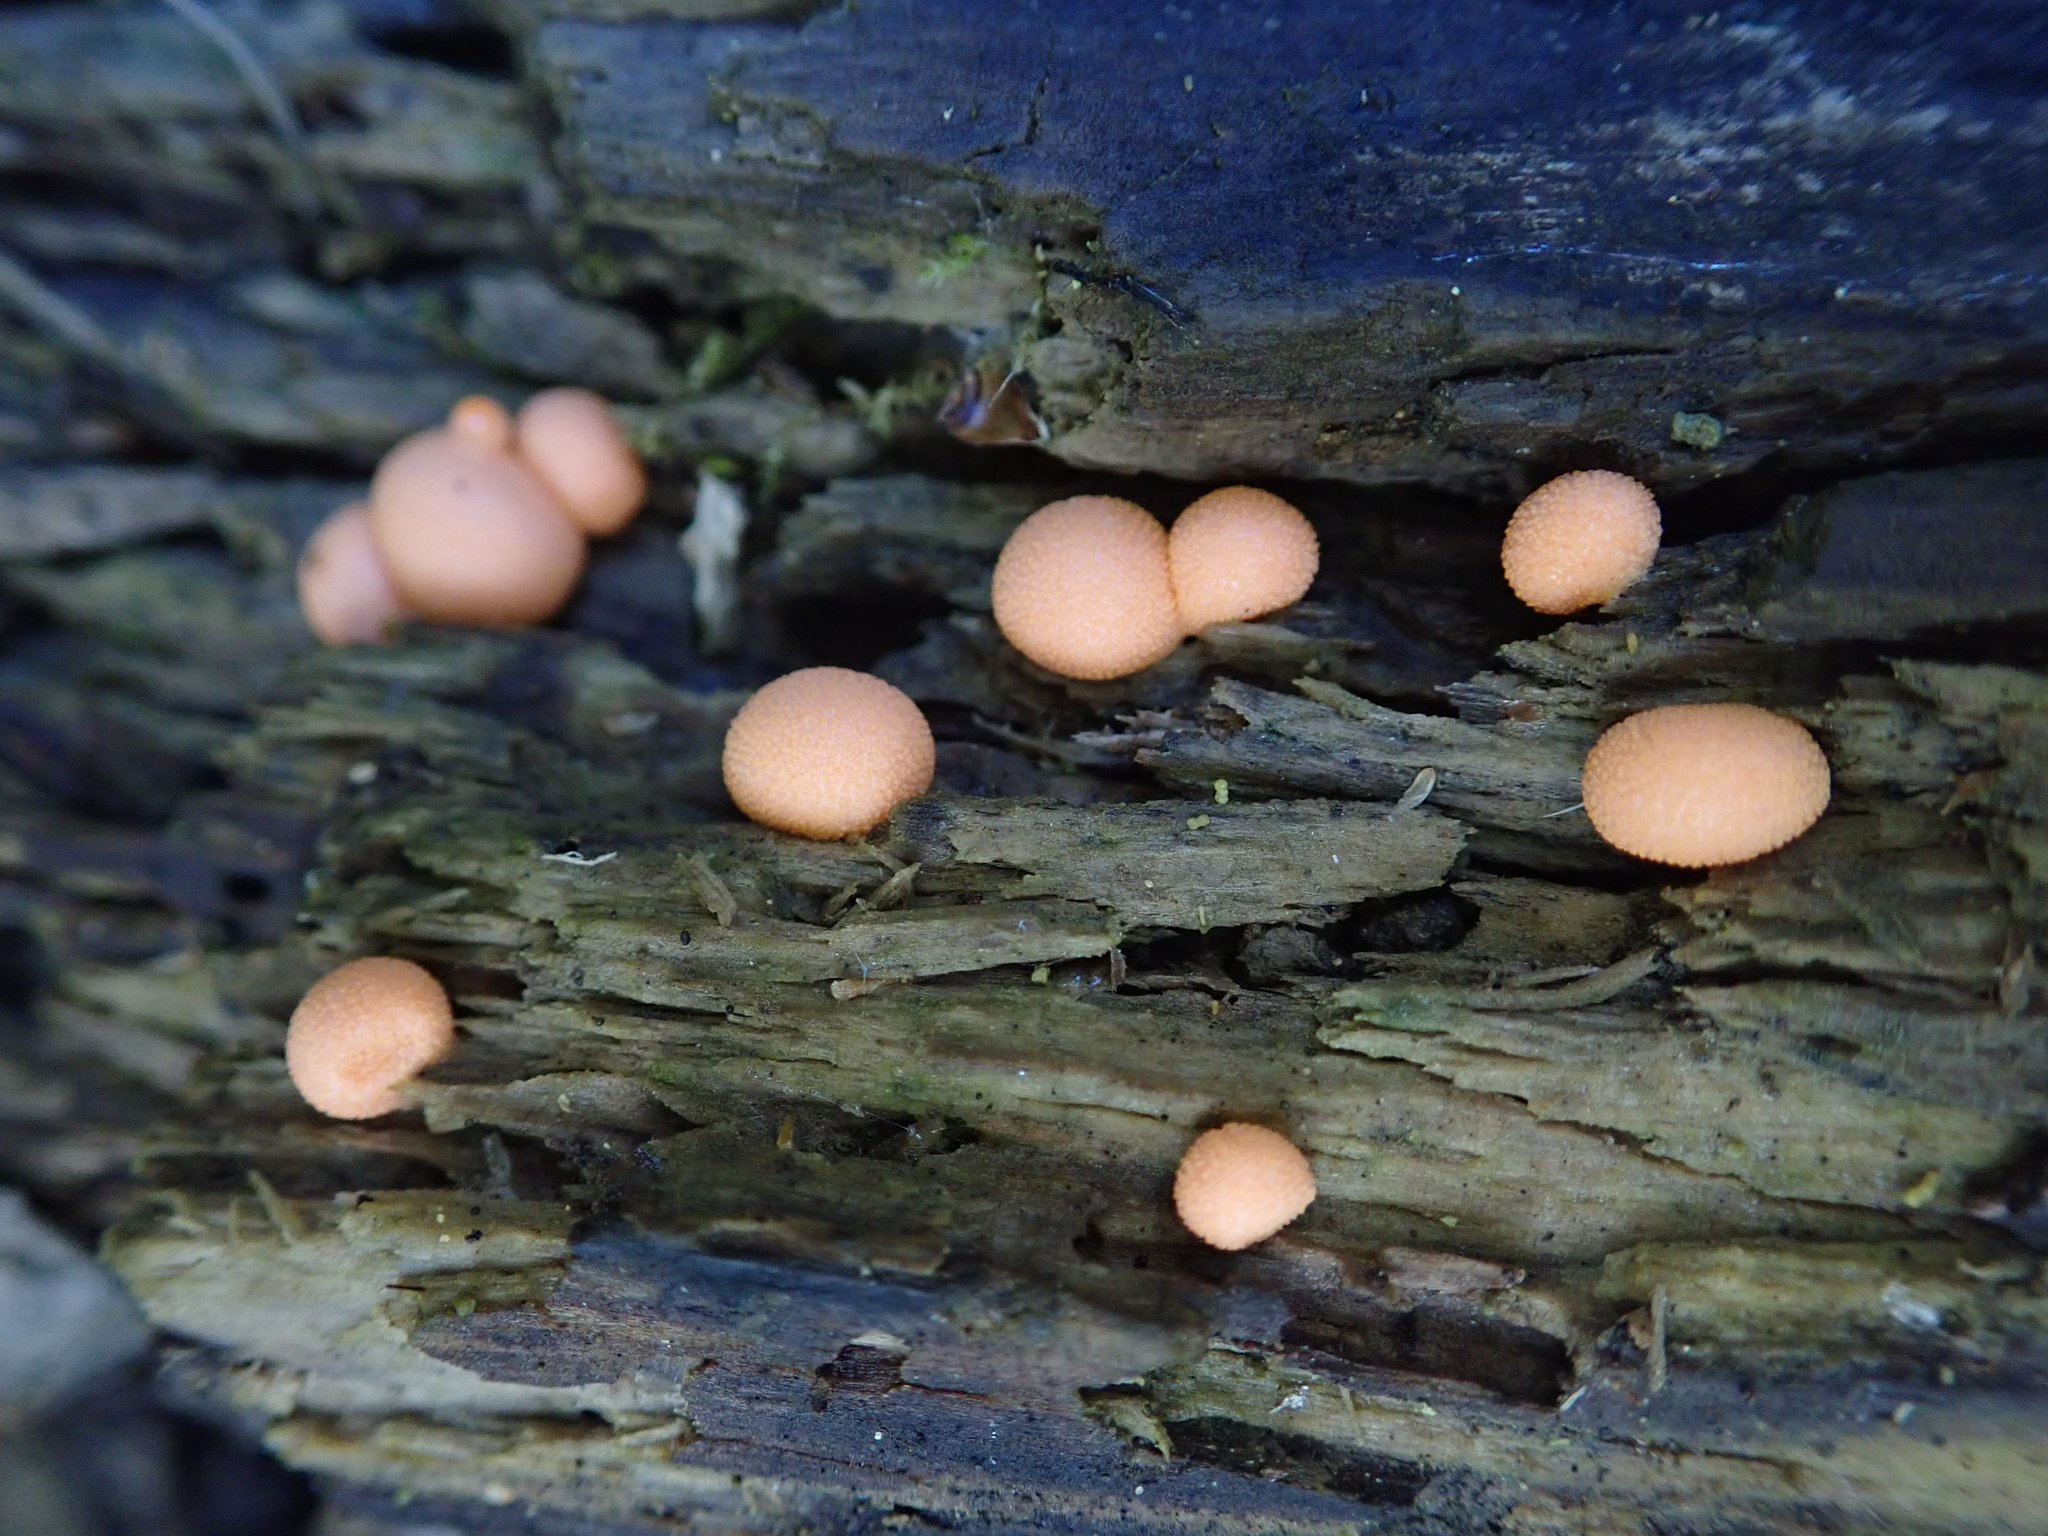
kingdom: Protozoa
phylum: Mycetozoa
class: Myxomycetes
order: Cribrariales
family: Tubiferaceae
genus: Lycogala
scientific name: Lycogala epidendrum
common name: Wolf's milk
